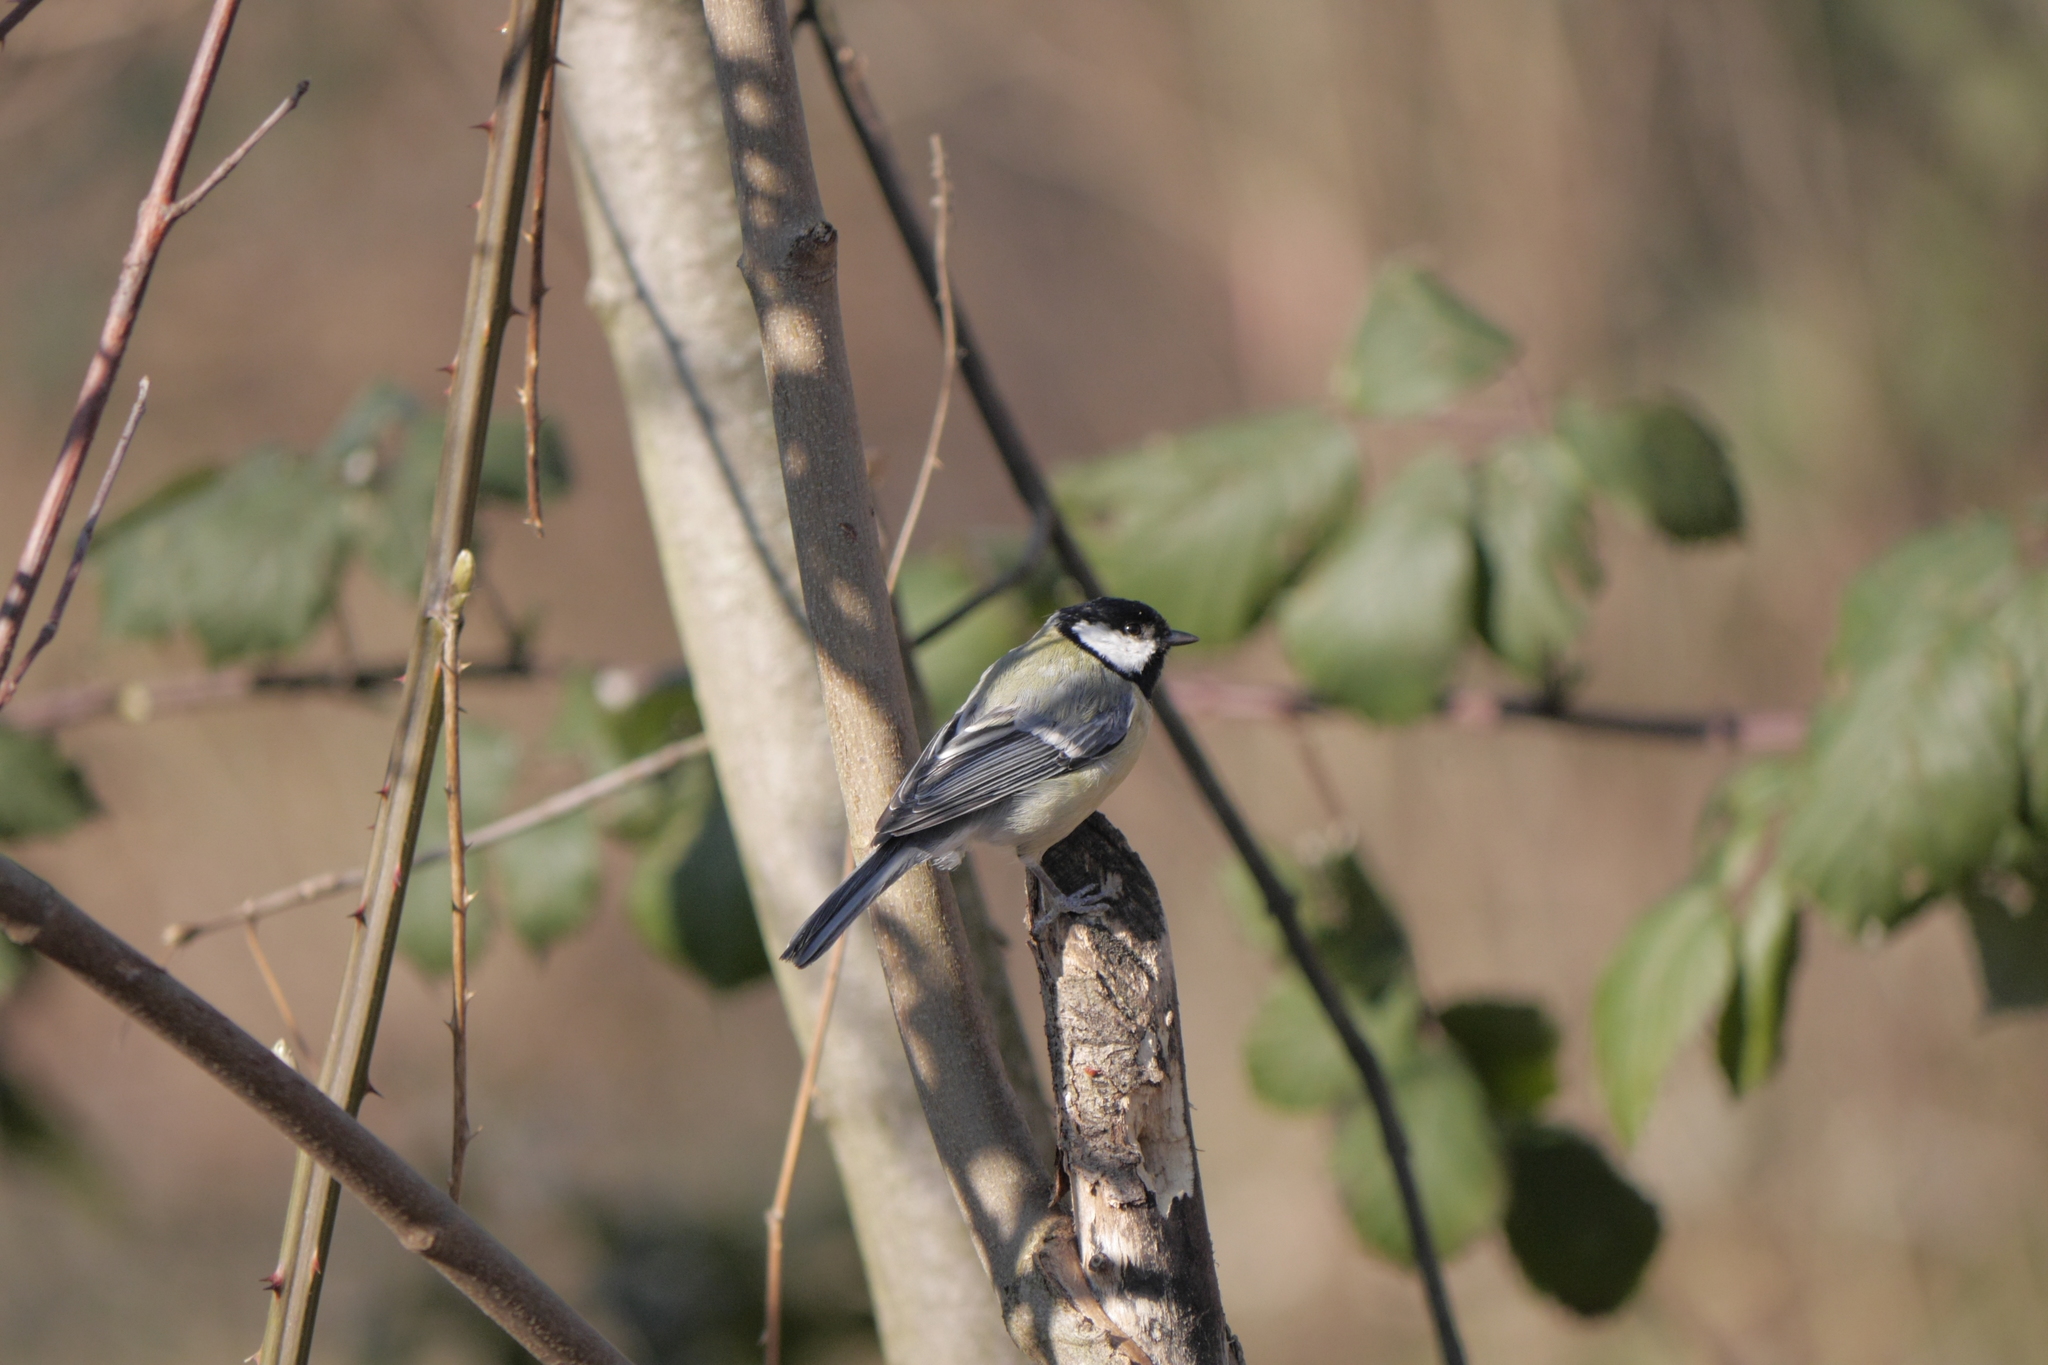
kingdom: Animalia
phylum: Chordata
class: Aves
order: Passeriformes
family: Paridae
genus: Parus
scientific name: Parus major
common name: Great tit
